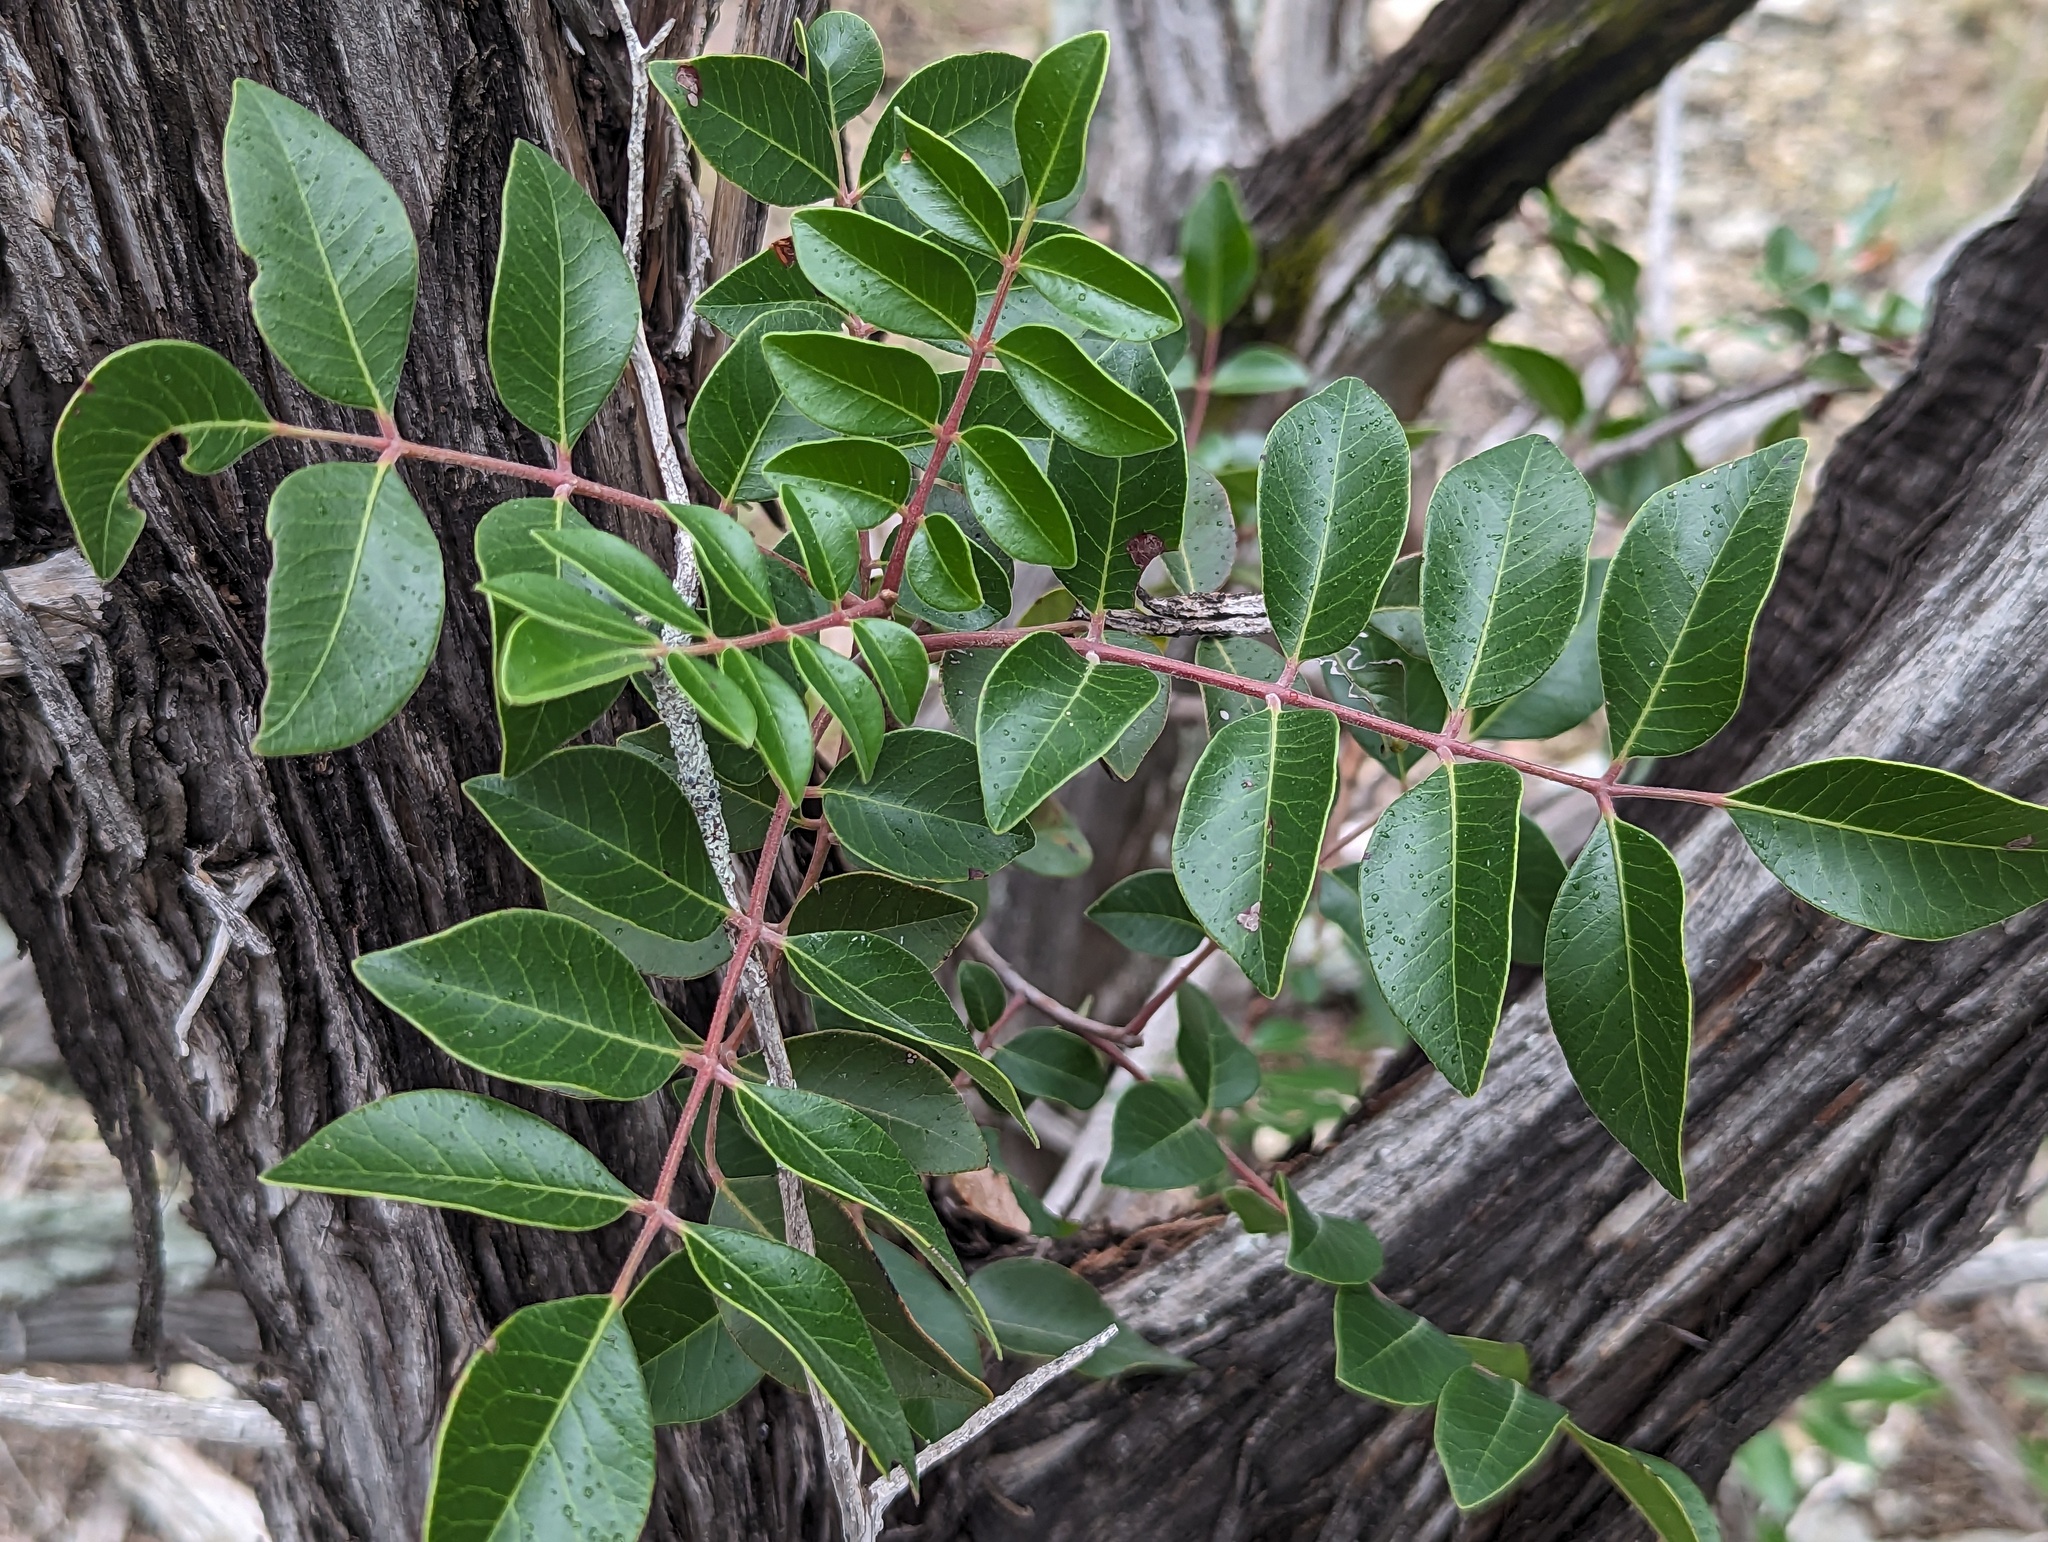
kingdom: Plantae
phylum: Tracheophyta
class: Magnoliopsida
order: Sapindales
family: Anacardiaceae
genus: Rhus
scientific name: Rhus virens
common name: Evergreen sumac
